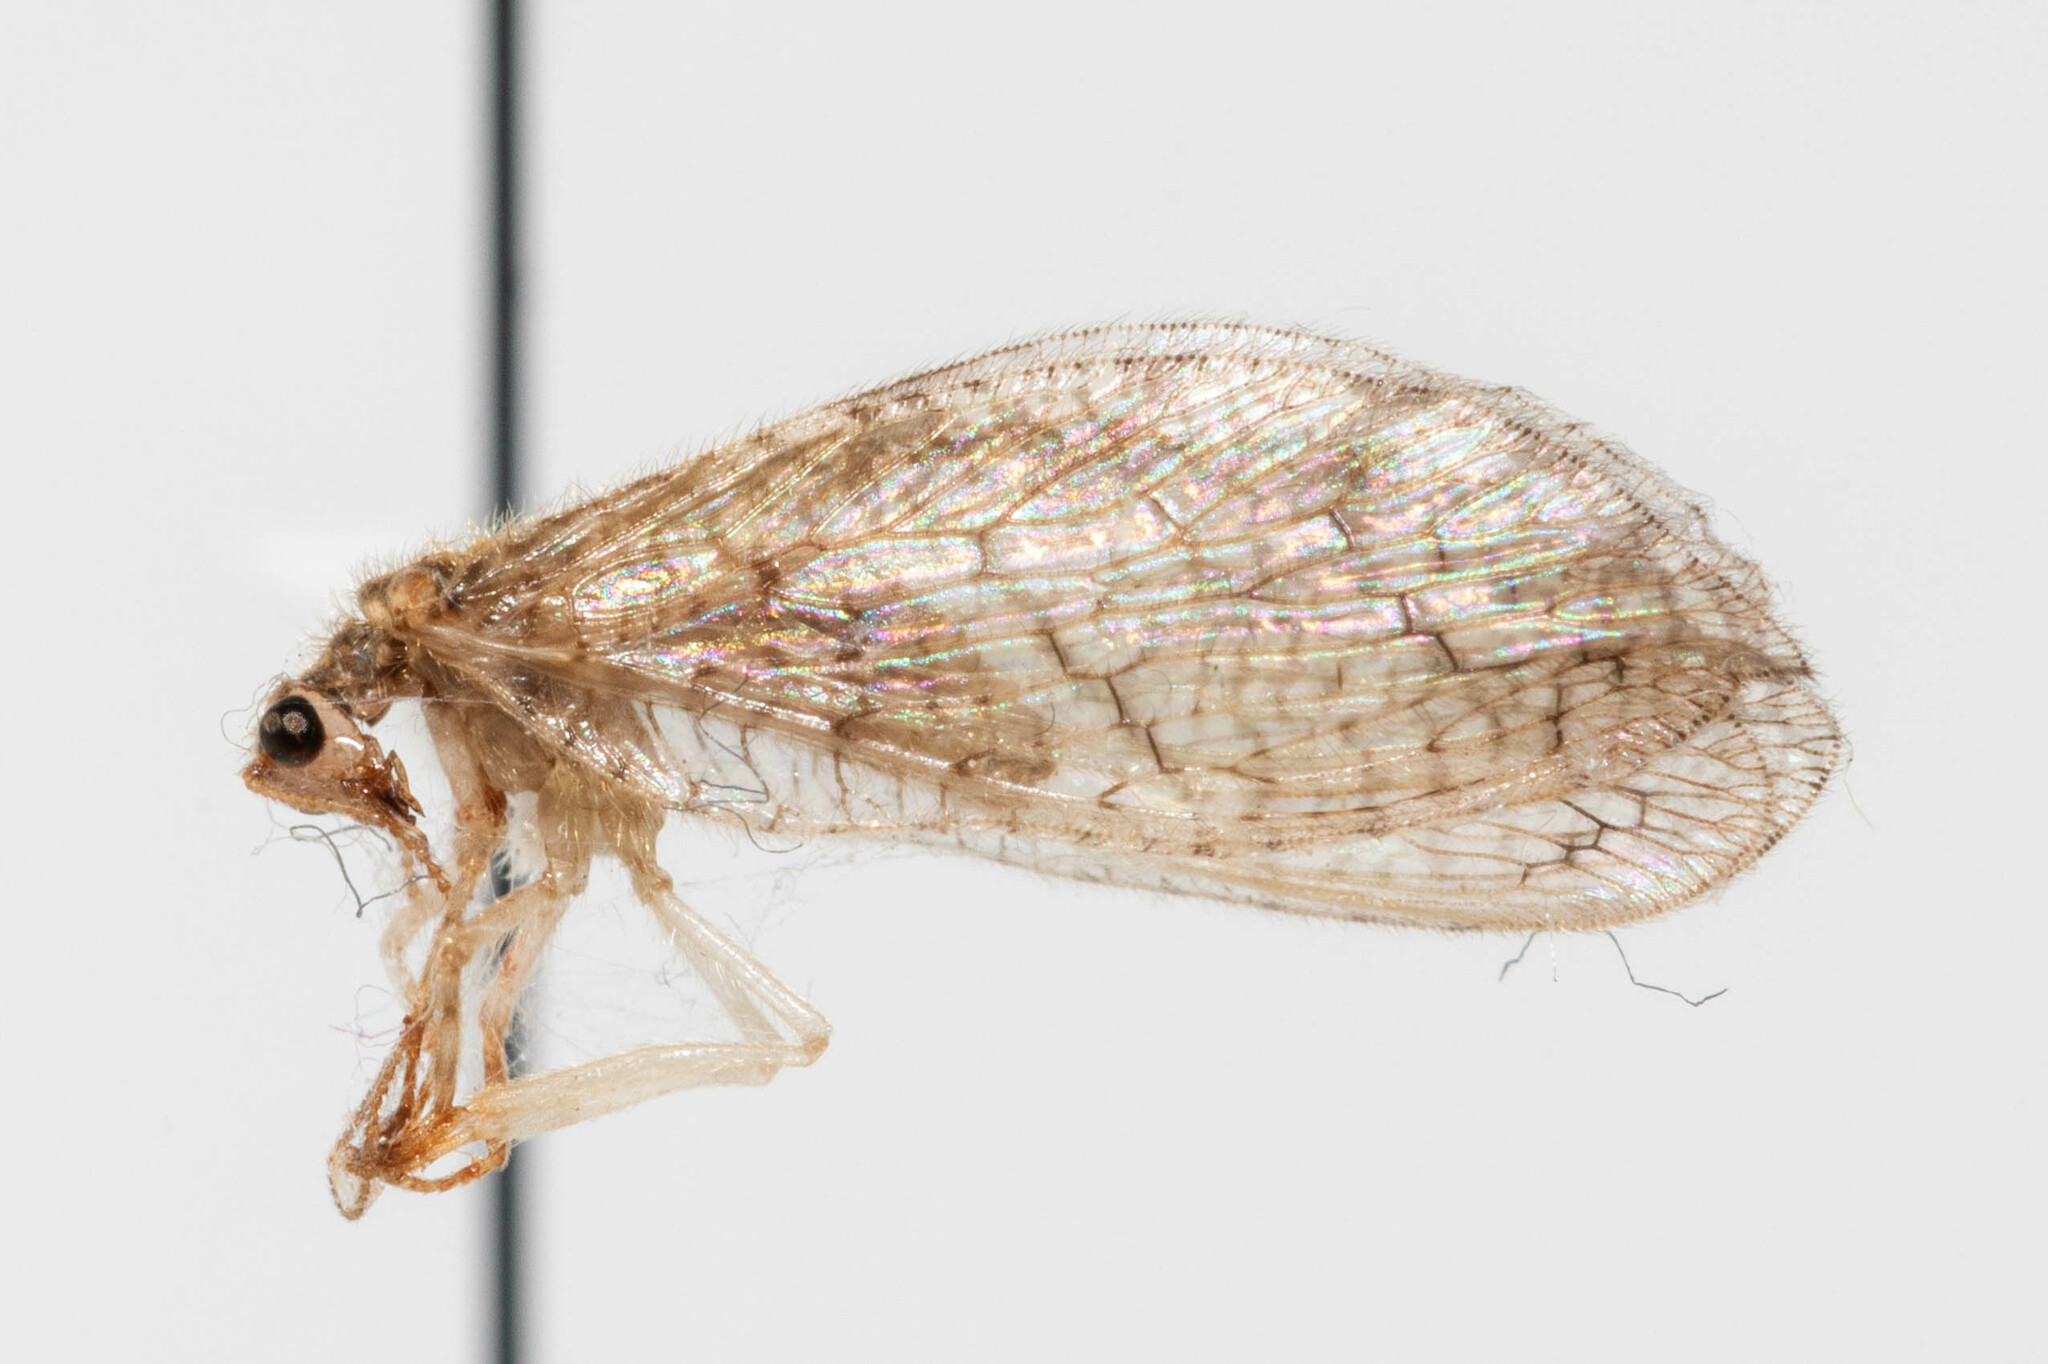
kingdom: Animalia
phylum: Arthropoda
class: Insecta
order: Neuroptera
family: Hemerobiidae
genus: Micromus
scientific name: Micromus posticus
